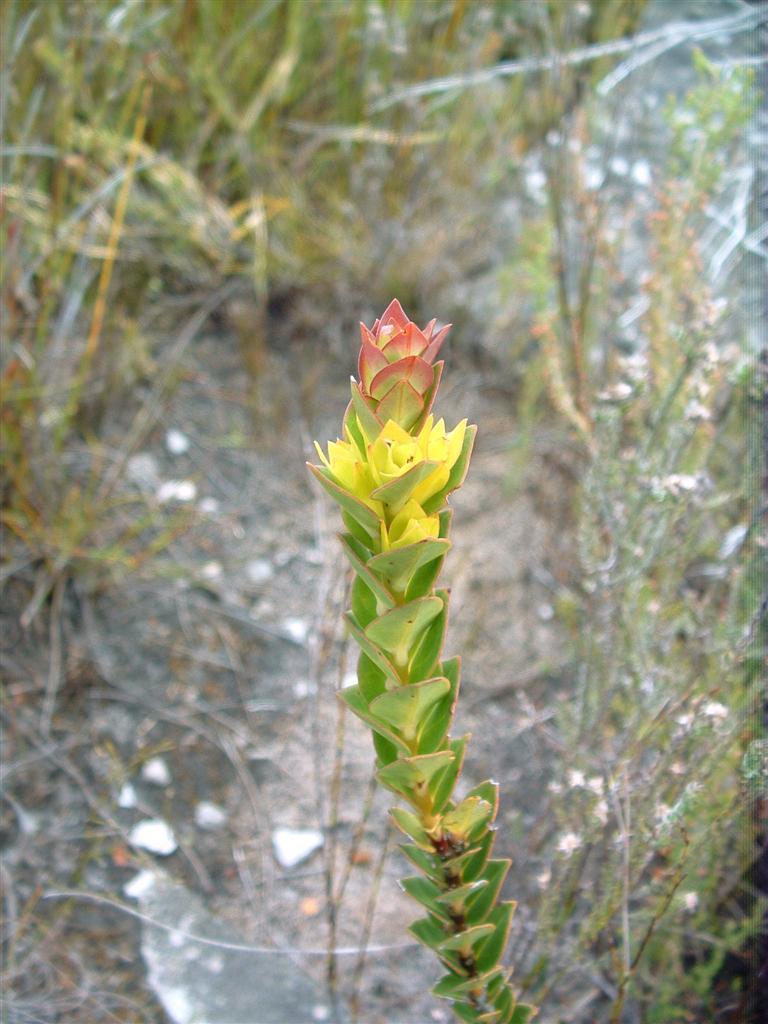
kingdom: Plantae
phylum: Tracheophyta
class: Magnoliopsida
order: Myrtales
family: Penaeaceae
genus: Endonema
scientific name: Endonema lateriflora
